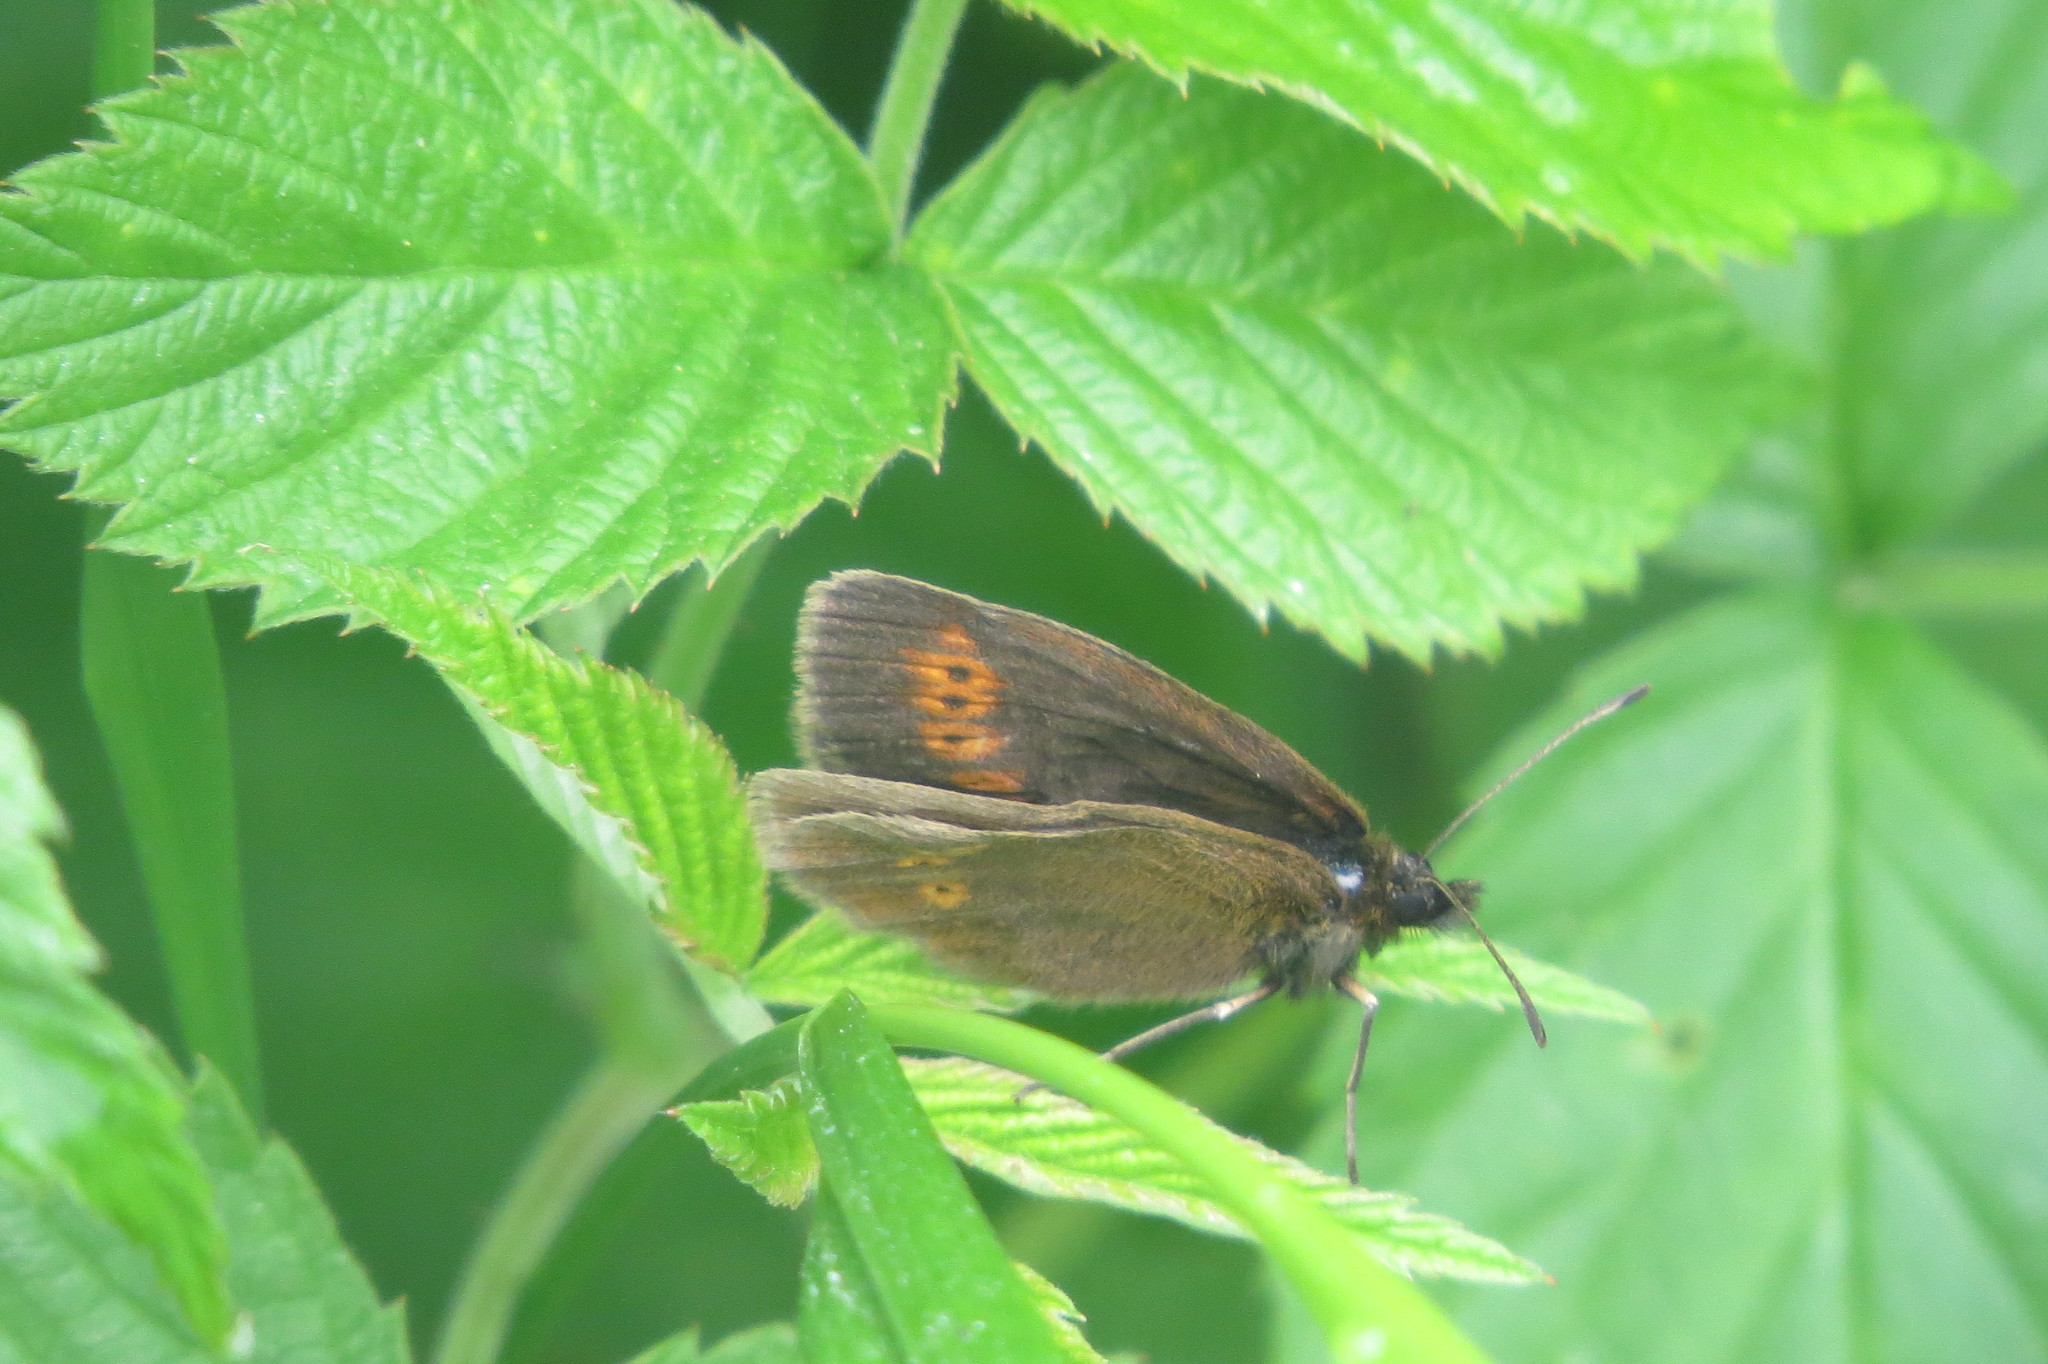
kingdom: Animalia
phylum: Arthropoda
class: Insecta
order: Lepidoptera
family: Nymphalidae
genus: Erebia
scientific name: Erebia melampus
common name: Lesser mountain ringlet
